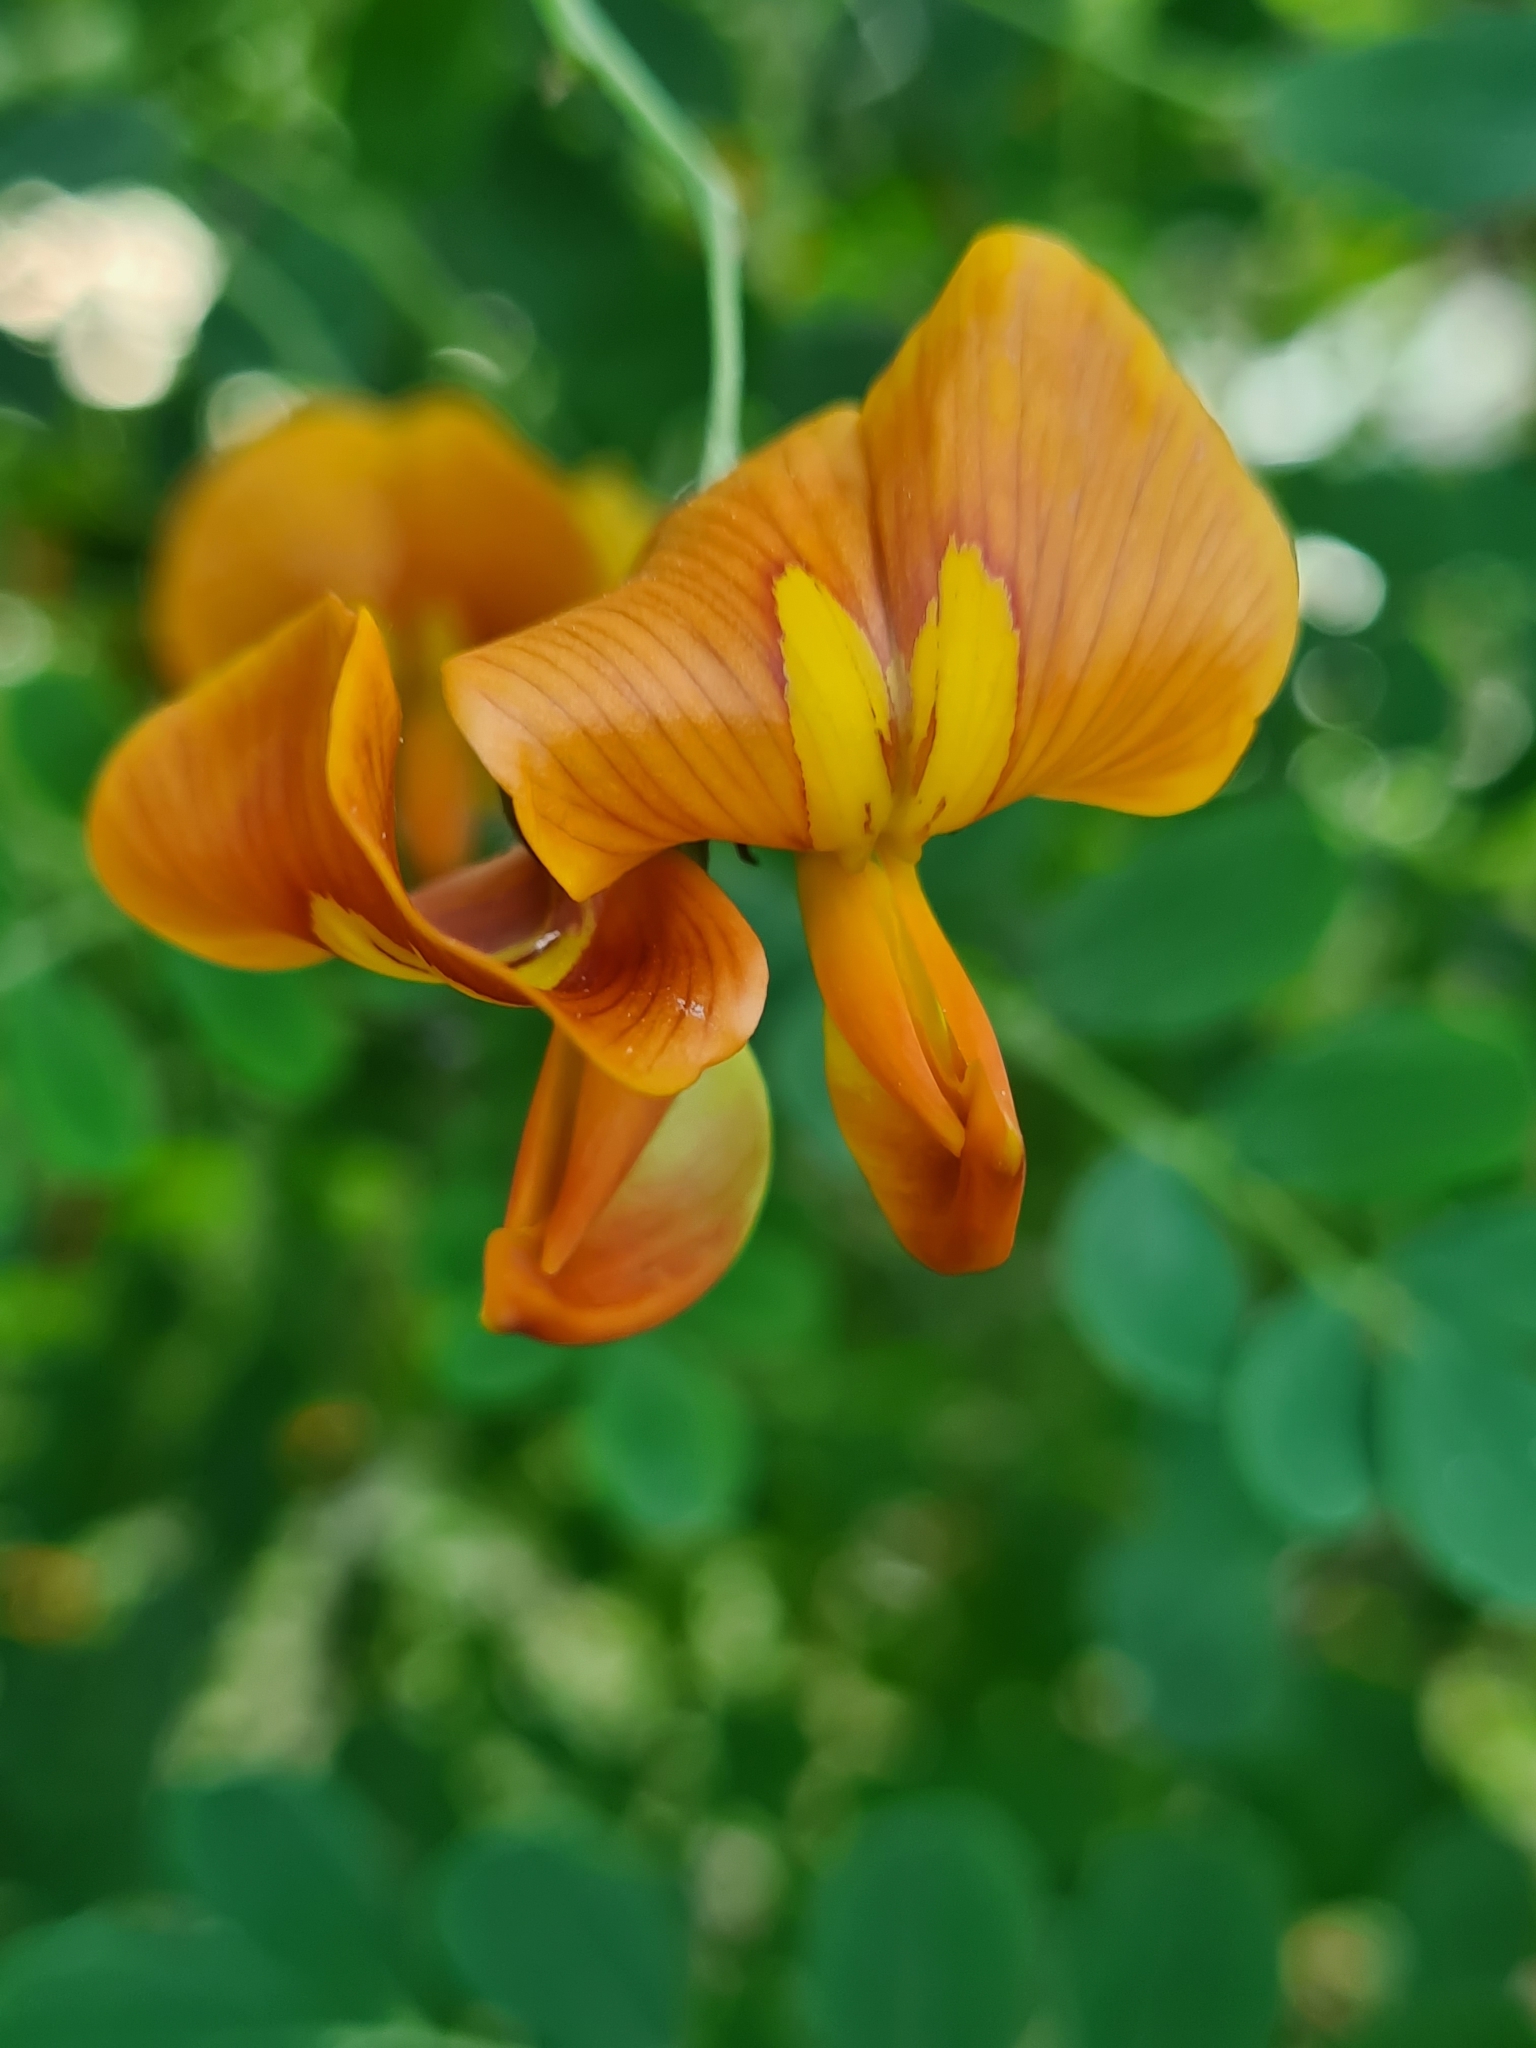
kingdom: Plantae
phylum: Tracheophyta
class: Magnoliopsida
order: Fabales
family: Fabaceae
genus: Colutea
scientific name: Colutea arborescens
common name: Bladder-senna
